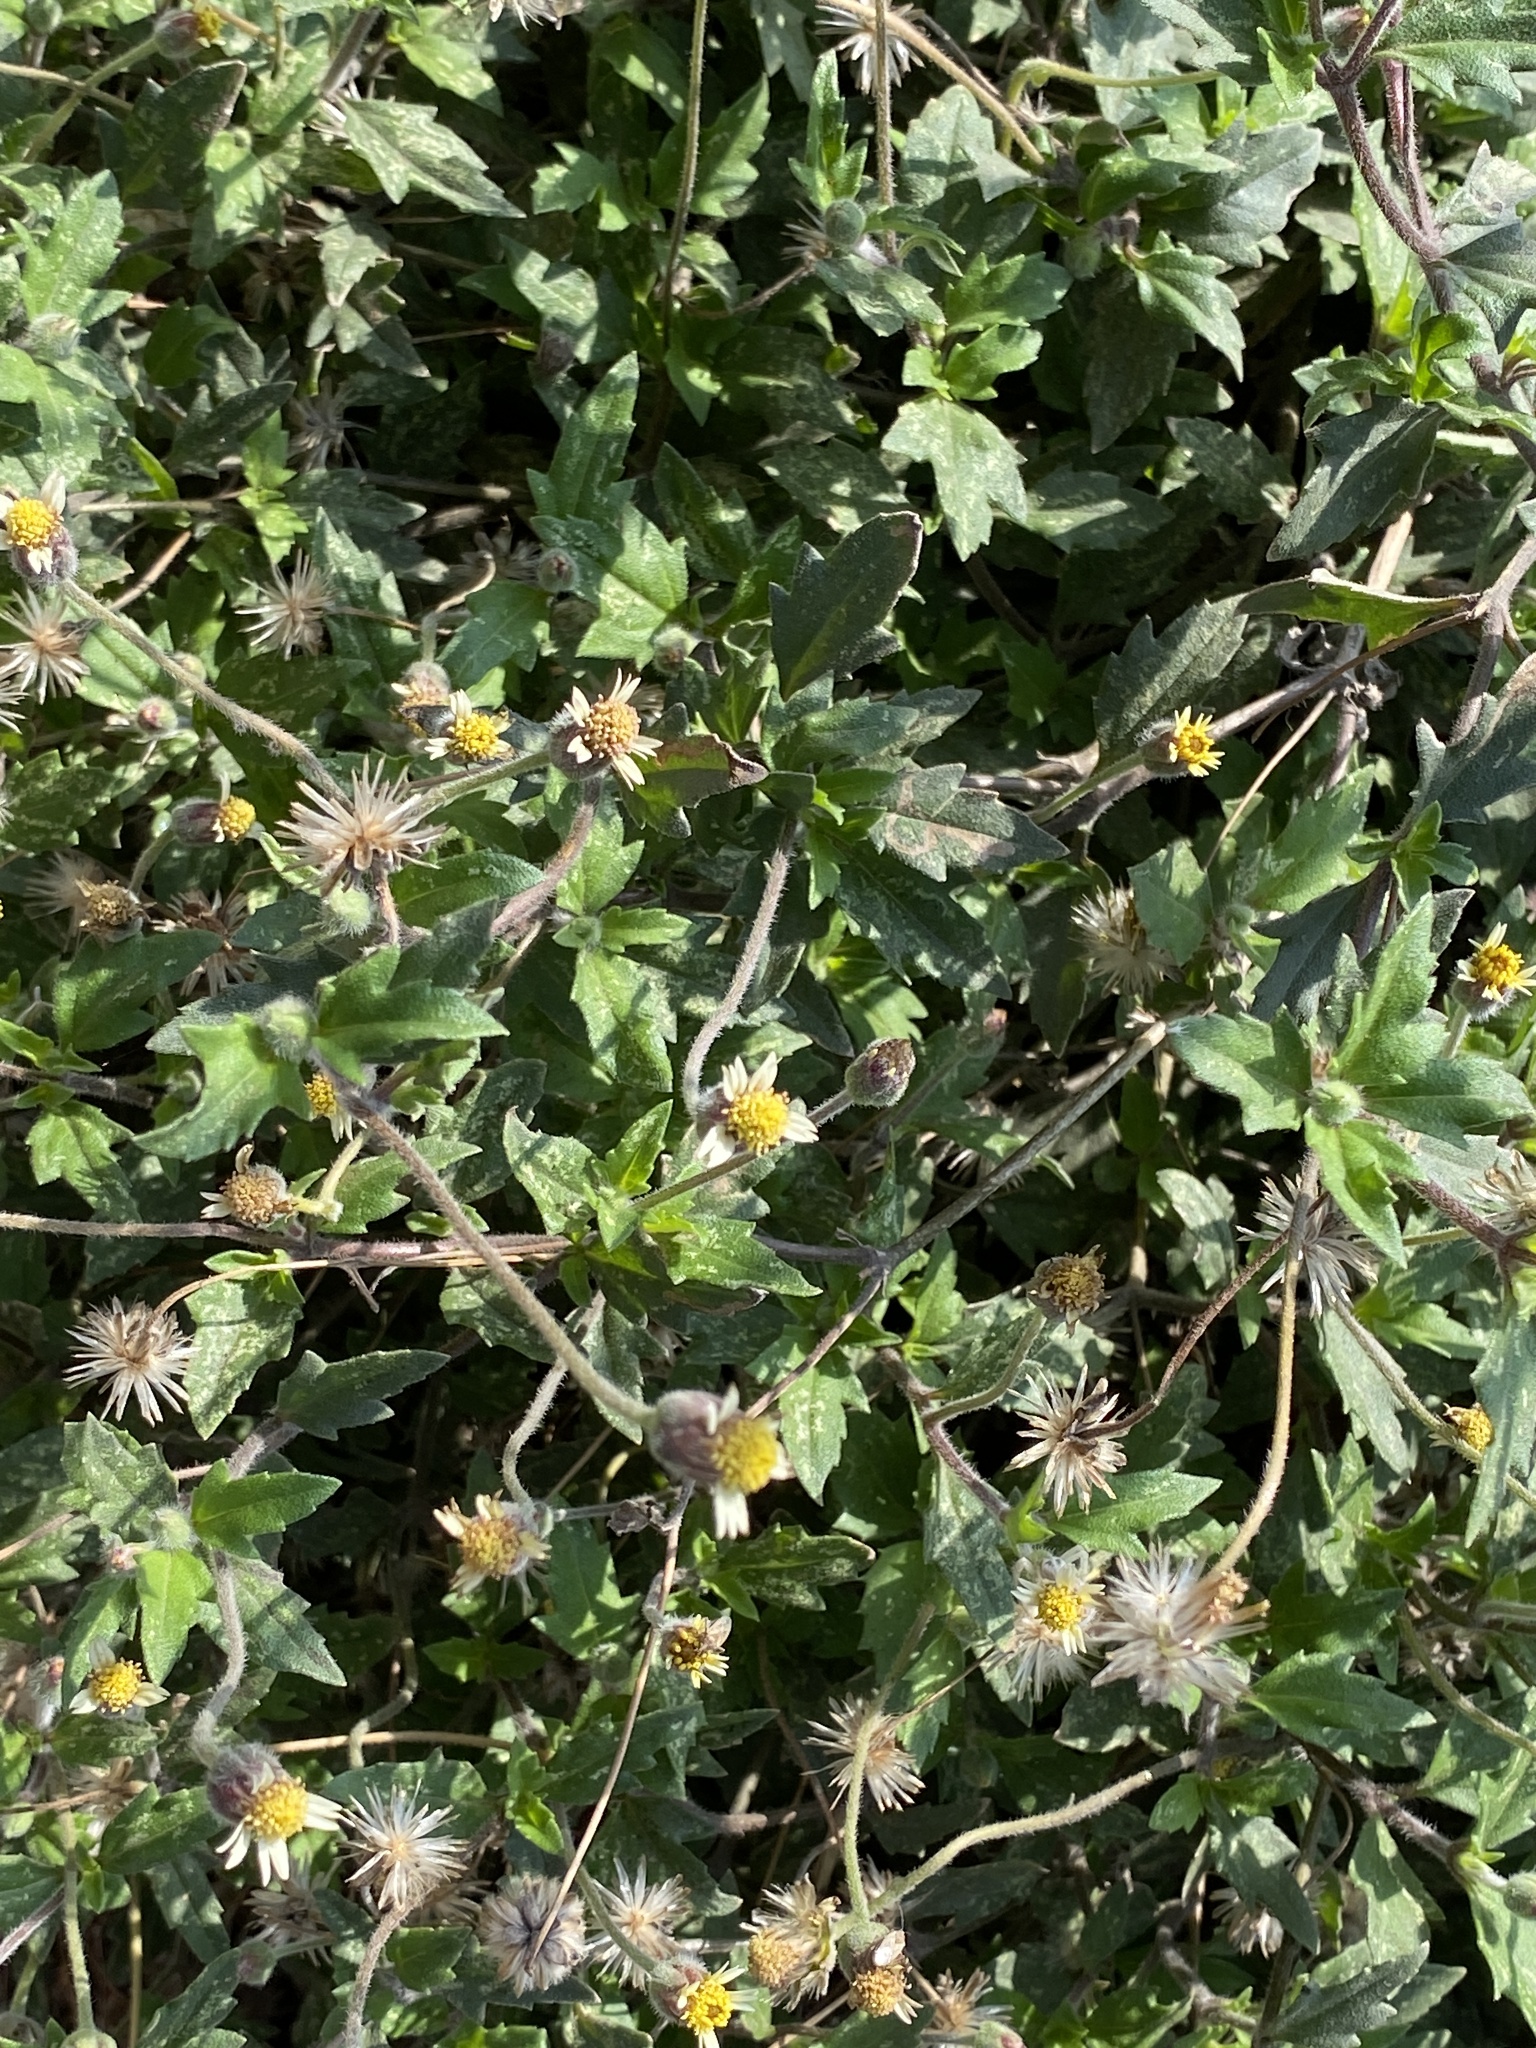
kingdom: Plantae
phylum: Tracheophyta
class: Magnoliopsida
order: Asterales
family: Asteraceae
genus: Tridax
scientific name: Tridax procumbens
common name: Coatbuttons
